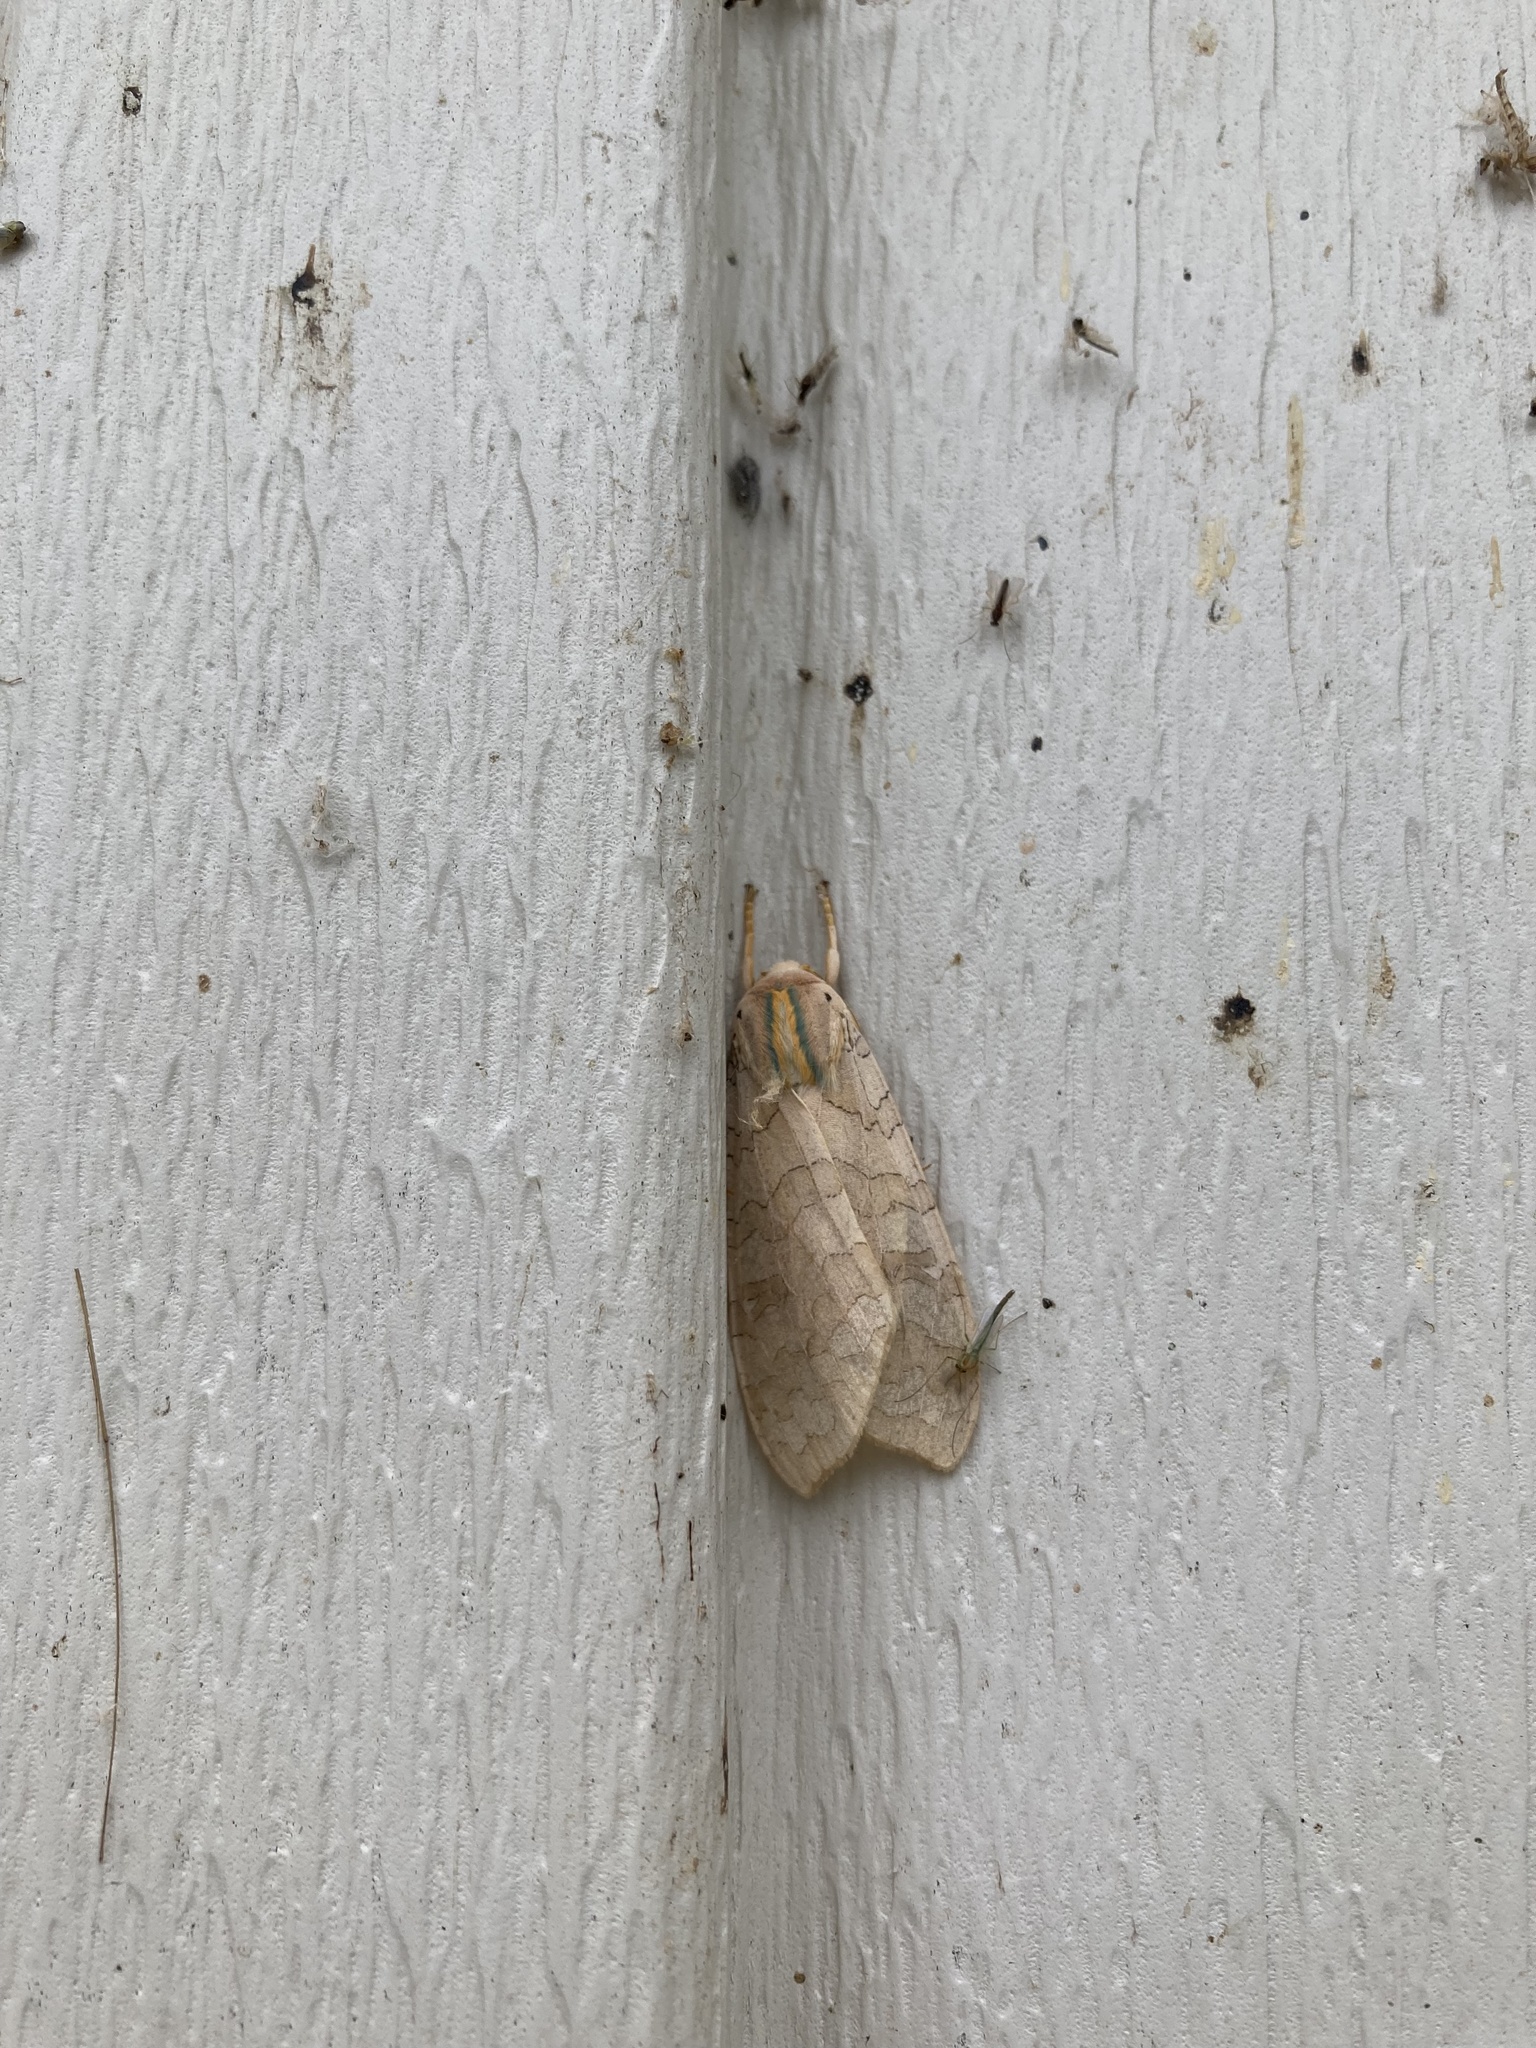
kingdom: Animalia
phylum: Arthropoda
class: Insecta
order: Lepidoptera
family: Erebidae
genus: Halysidota
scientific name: Halysidota
